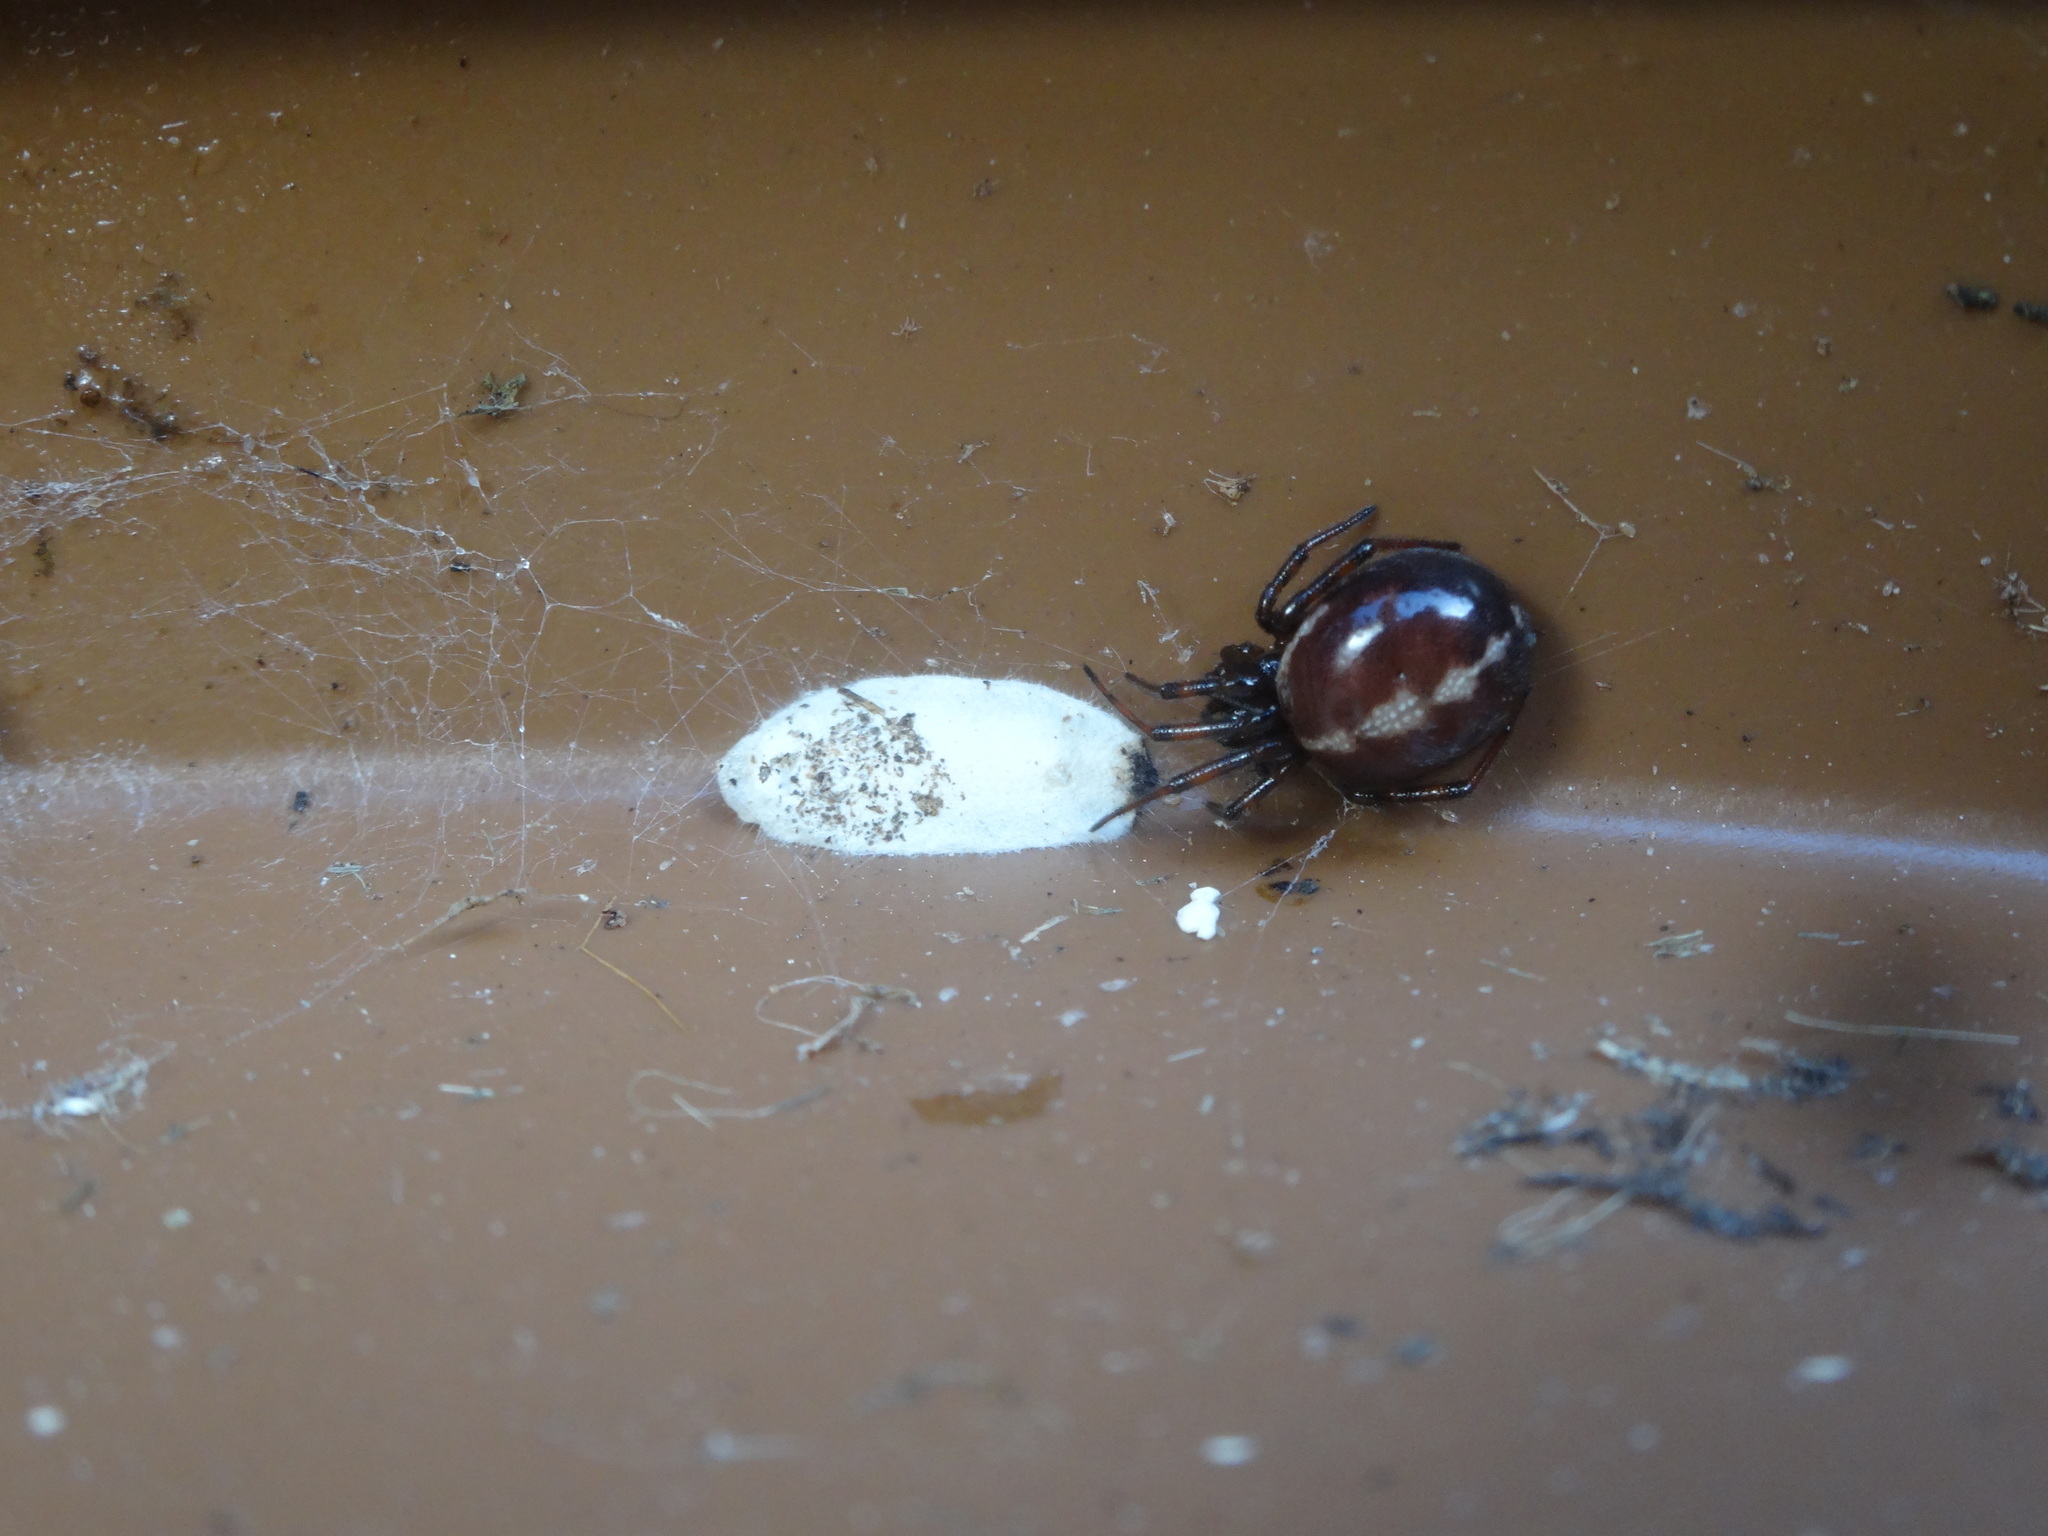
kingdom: Animalia
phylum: Arthropoda
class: Arachnida
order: Araneae
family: Theridiidae
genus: Steatoda
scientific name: Steatoda bipunctata
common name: False widow
